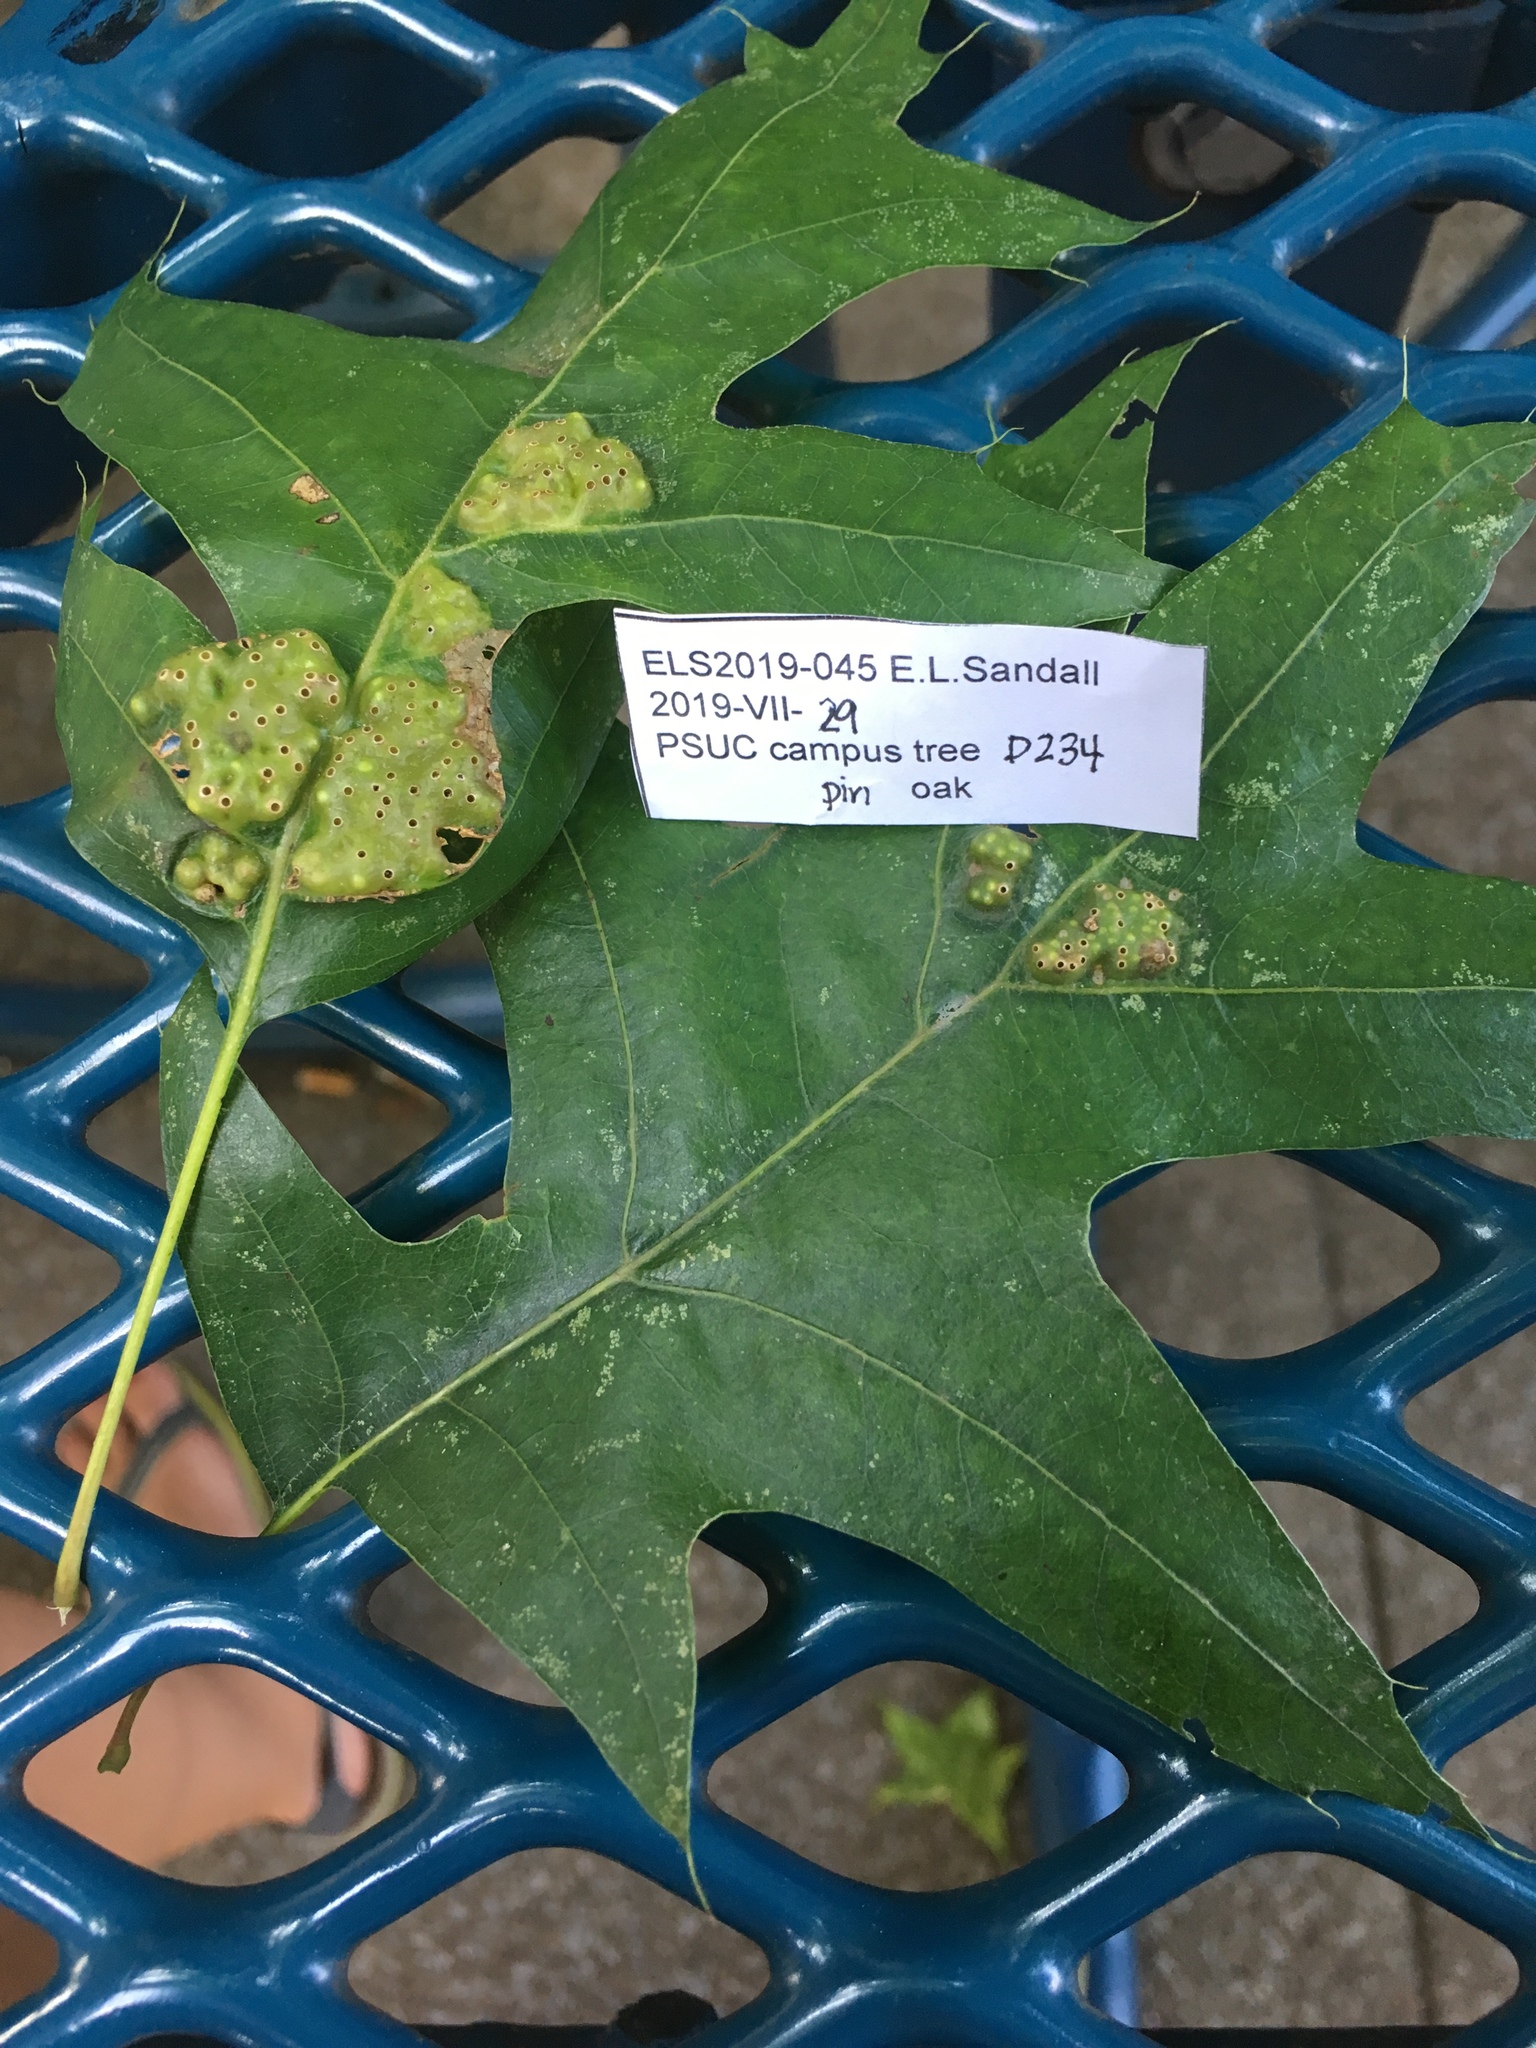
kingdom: Animalia
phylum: Arthropoda
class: Insecta
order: Hymenoptera
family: Cynipidae
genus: Callirhytis
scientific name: Callirhytis
